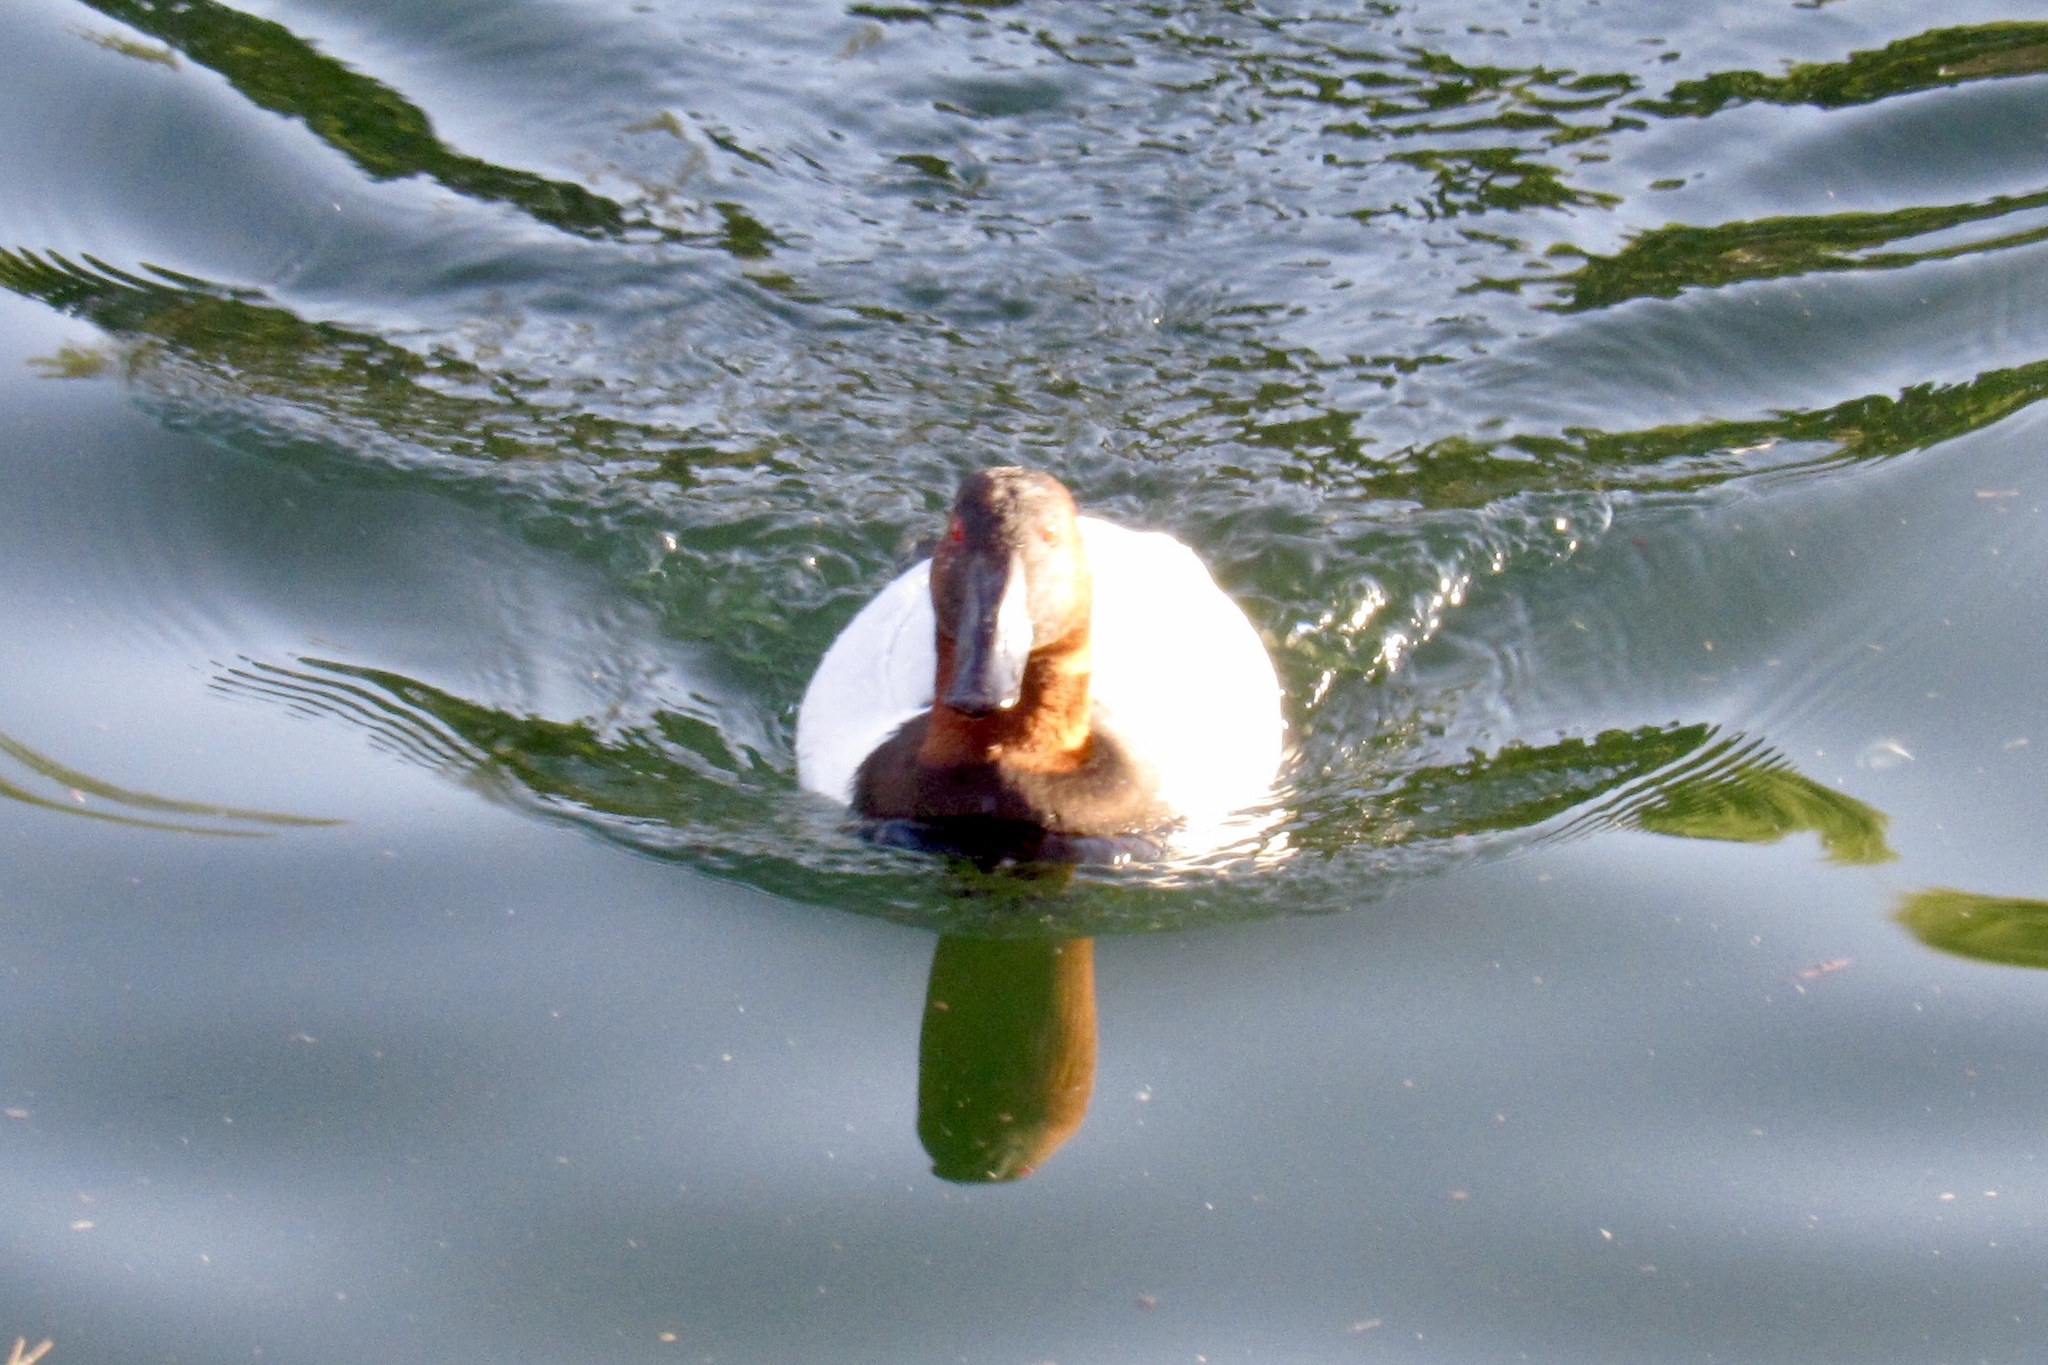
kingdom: Animalia
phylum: Chordata
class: Aves
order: Anseriformes
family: Anatidae
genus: Aythya
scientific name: Aythya valisineria
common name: Canvasback
